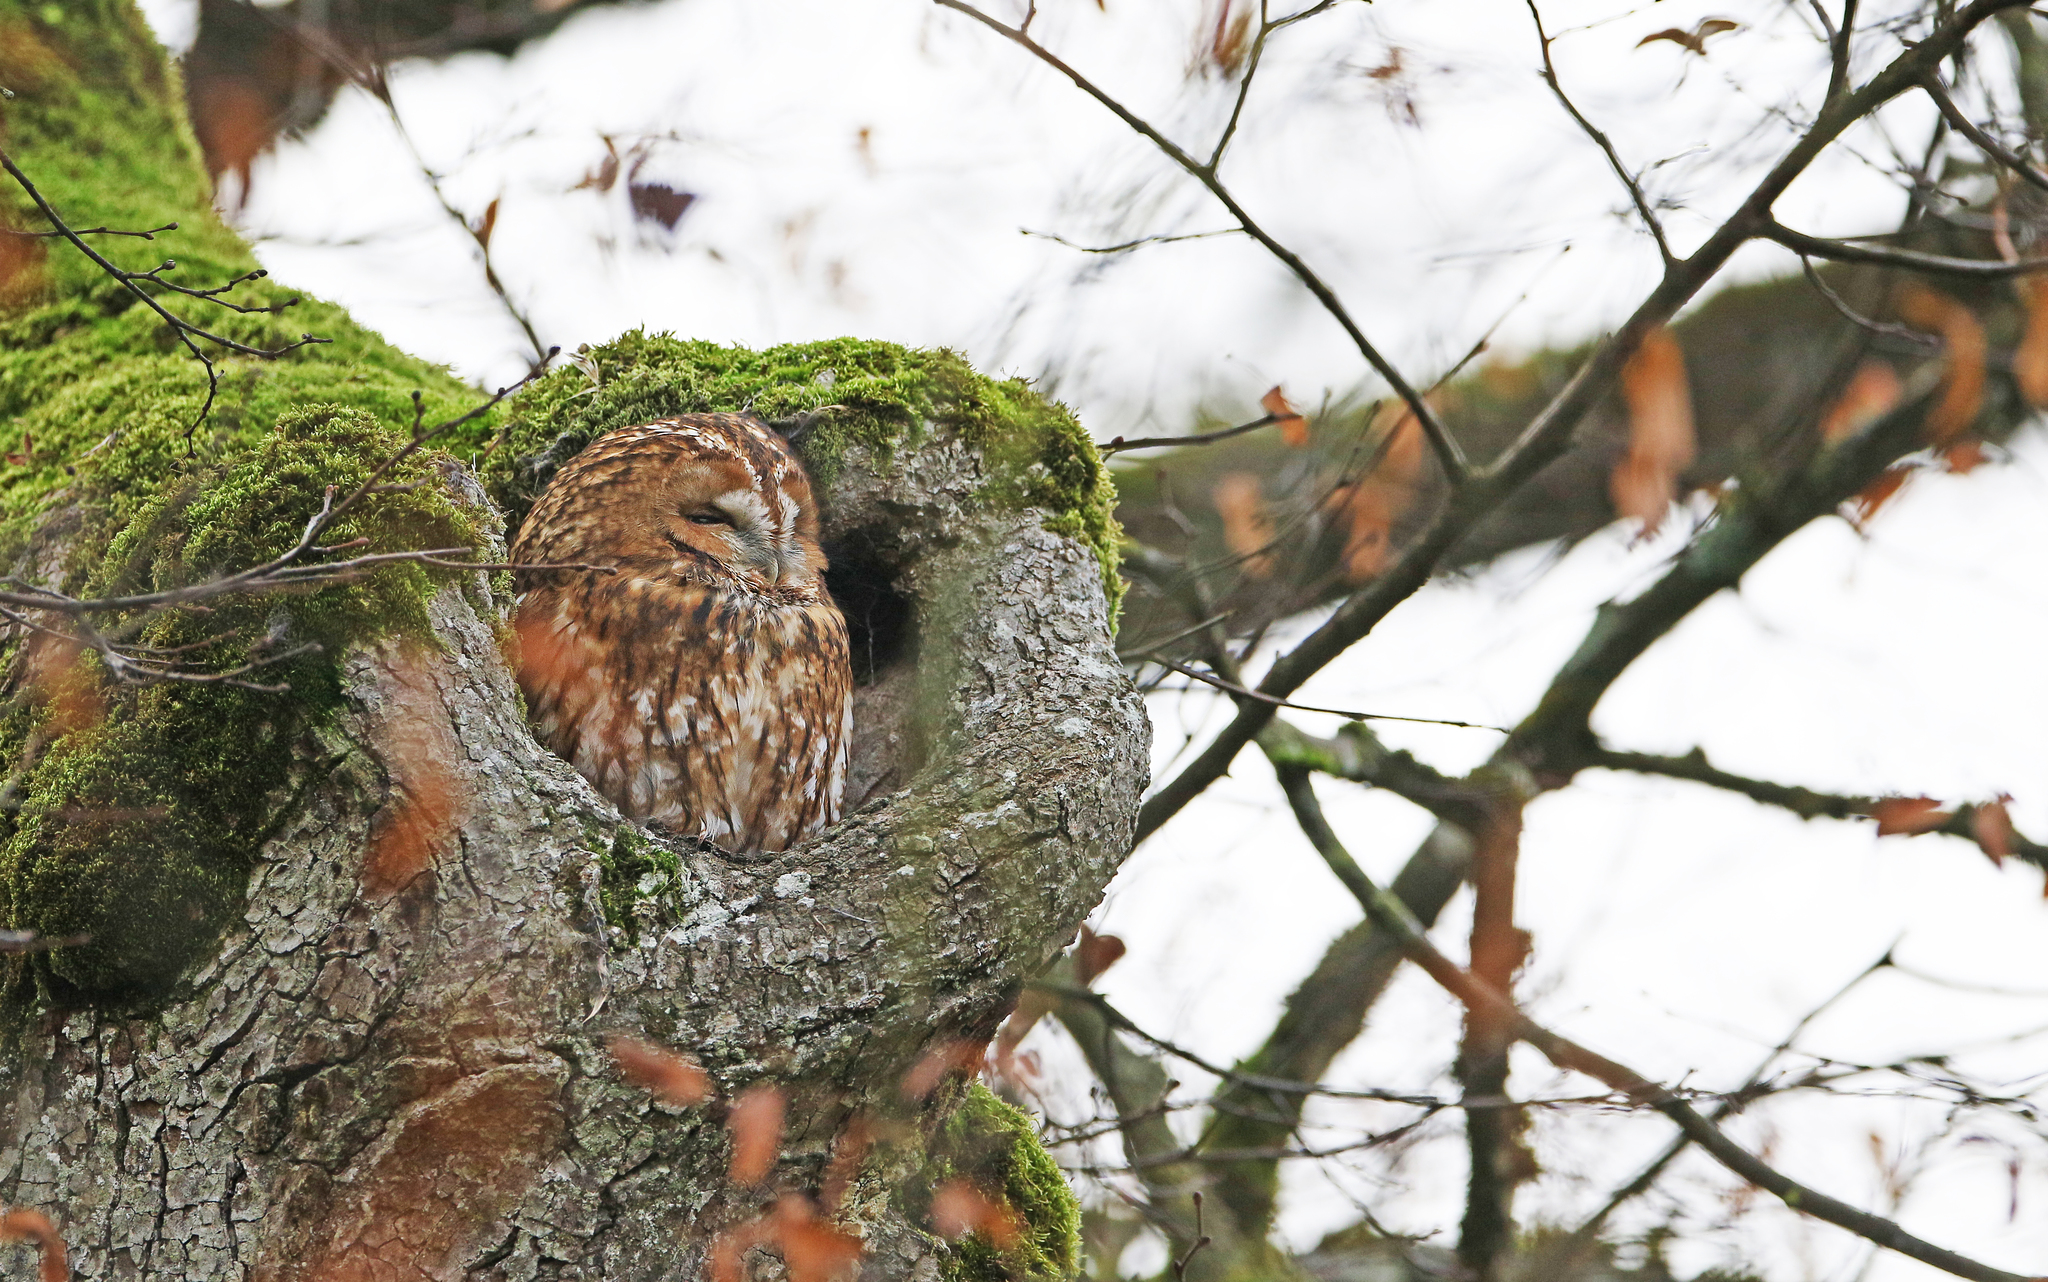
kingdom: Animalia
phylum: Chordata
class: Aves
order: Strigiformes
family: Strigidae
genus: Strix
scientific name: Strix aluco
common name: Tawny owl
